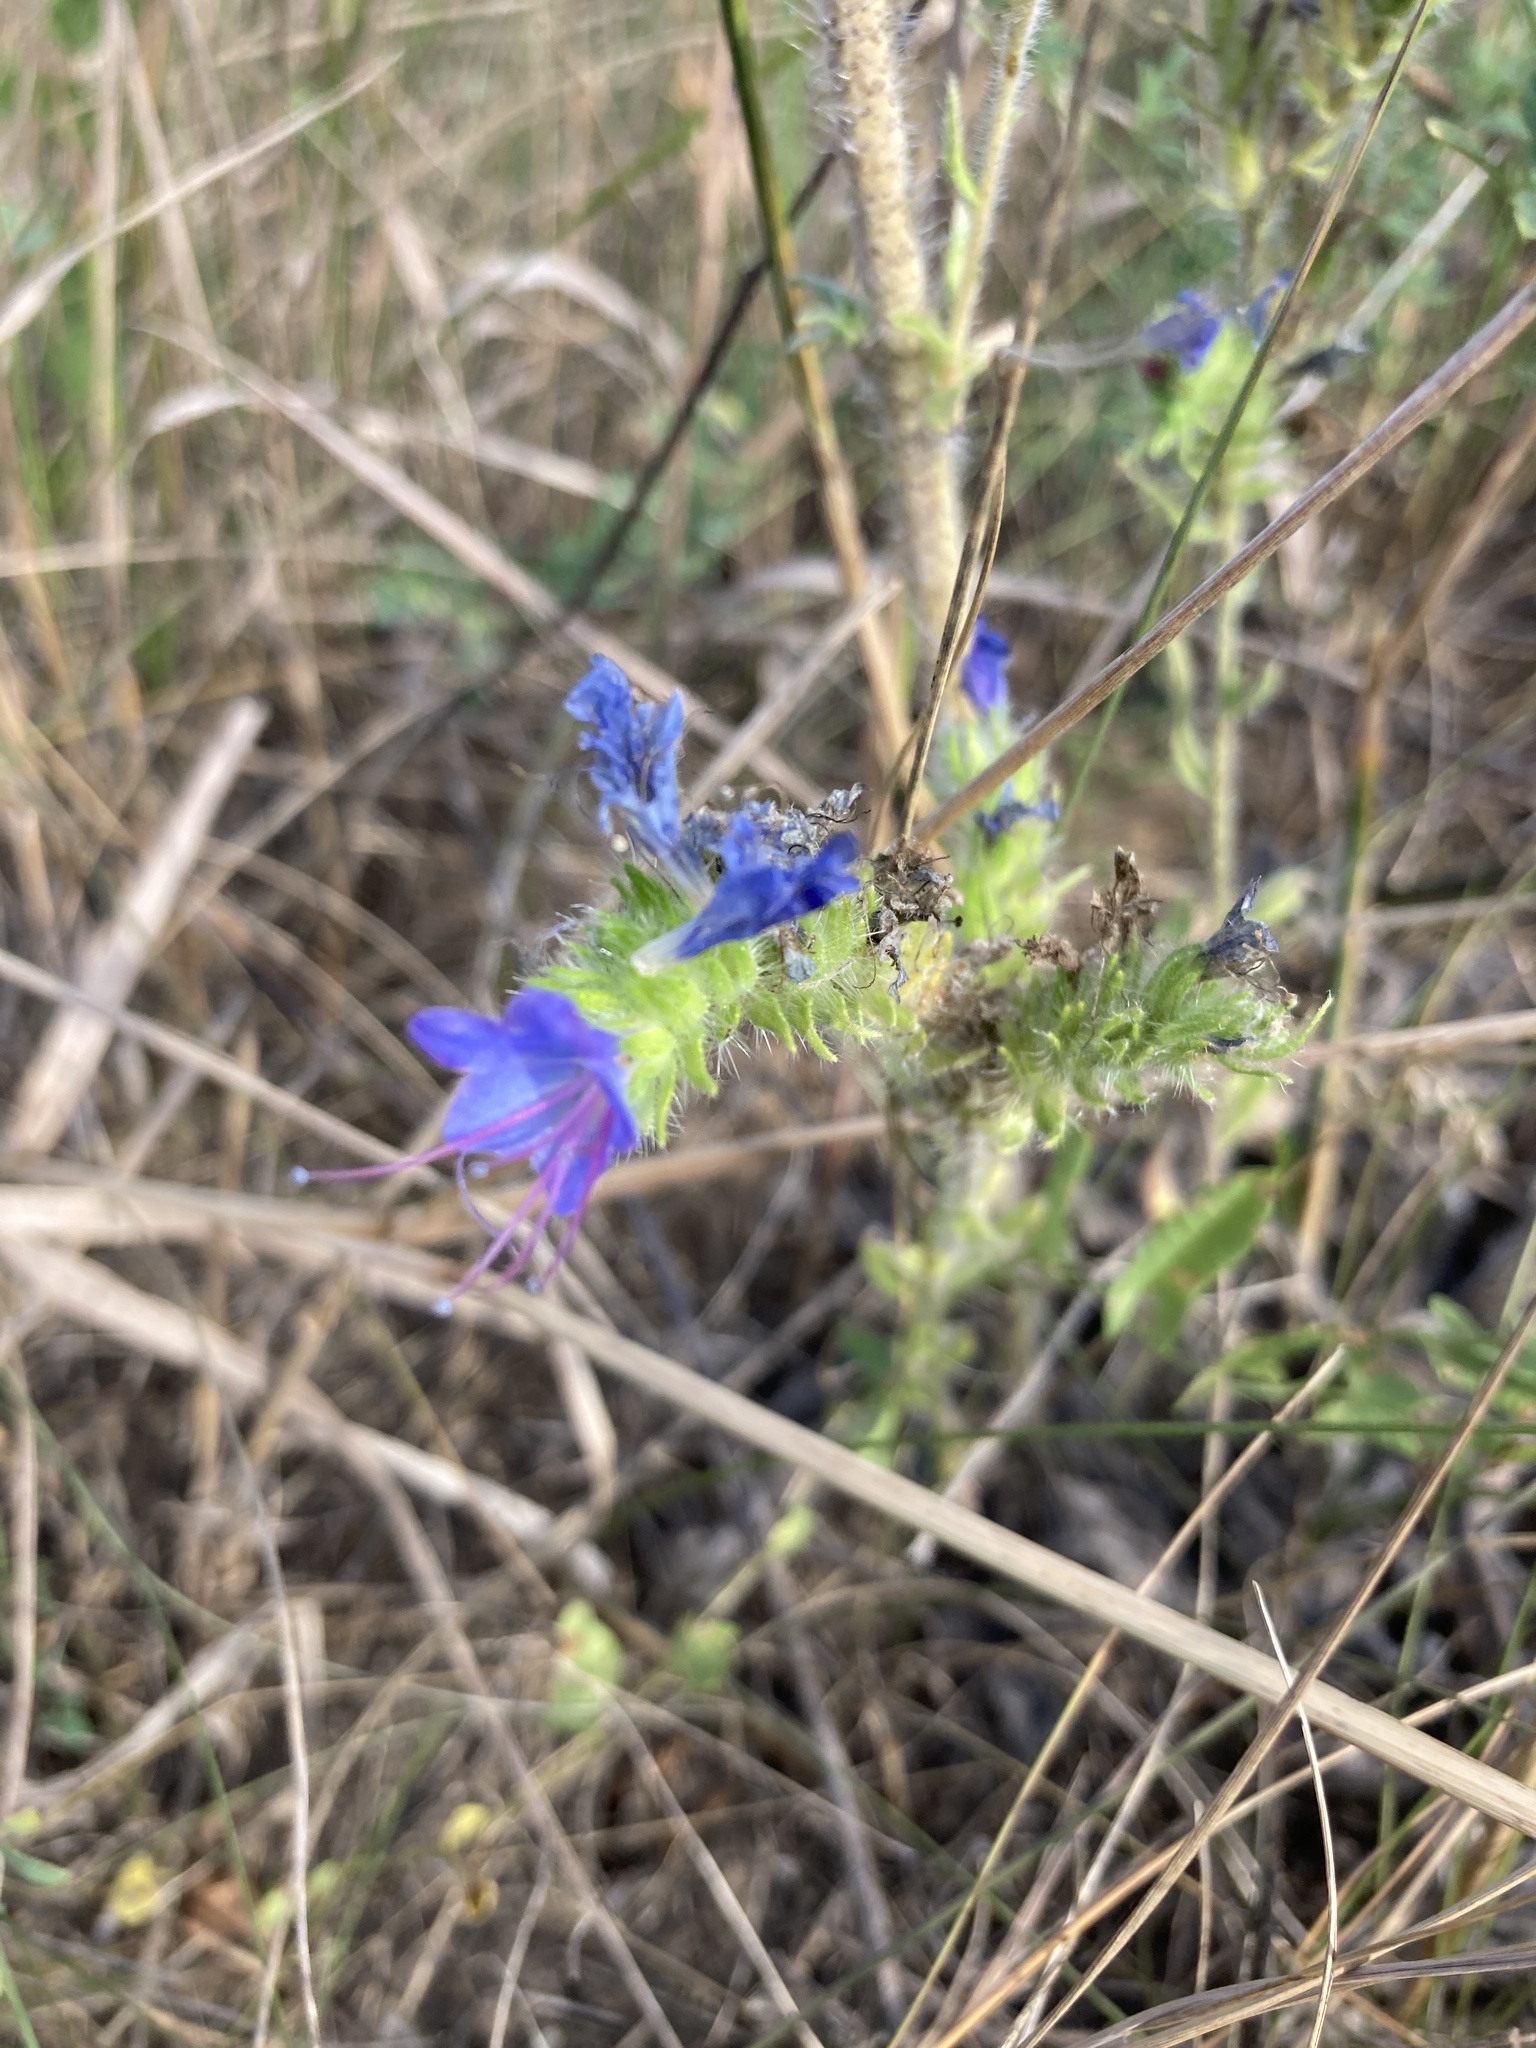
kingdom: Plantae
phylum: Tracheophyta
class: Magnoliopsida
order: Boraginales
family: Boraginaceae
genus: Echium
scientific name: Echium vulgare
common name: Common viper's bugloss
